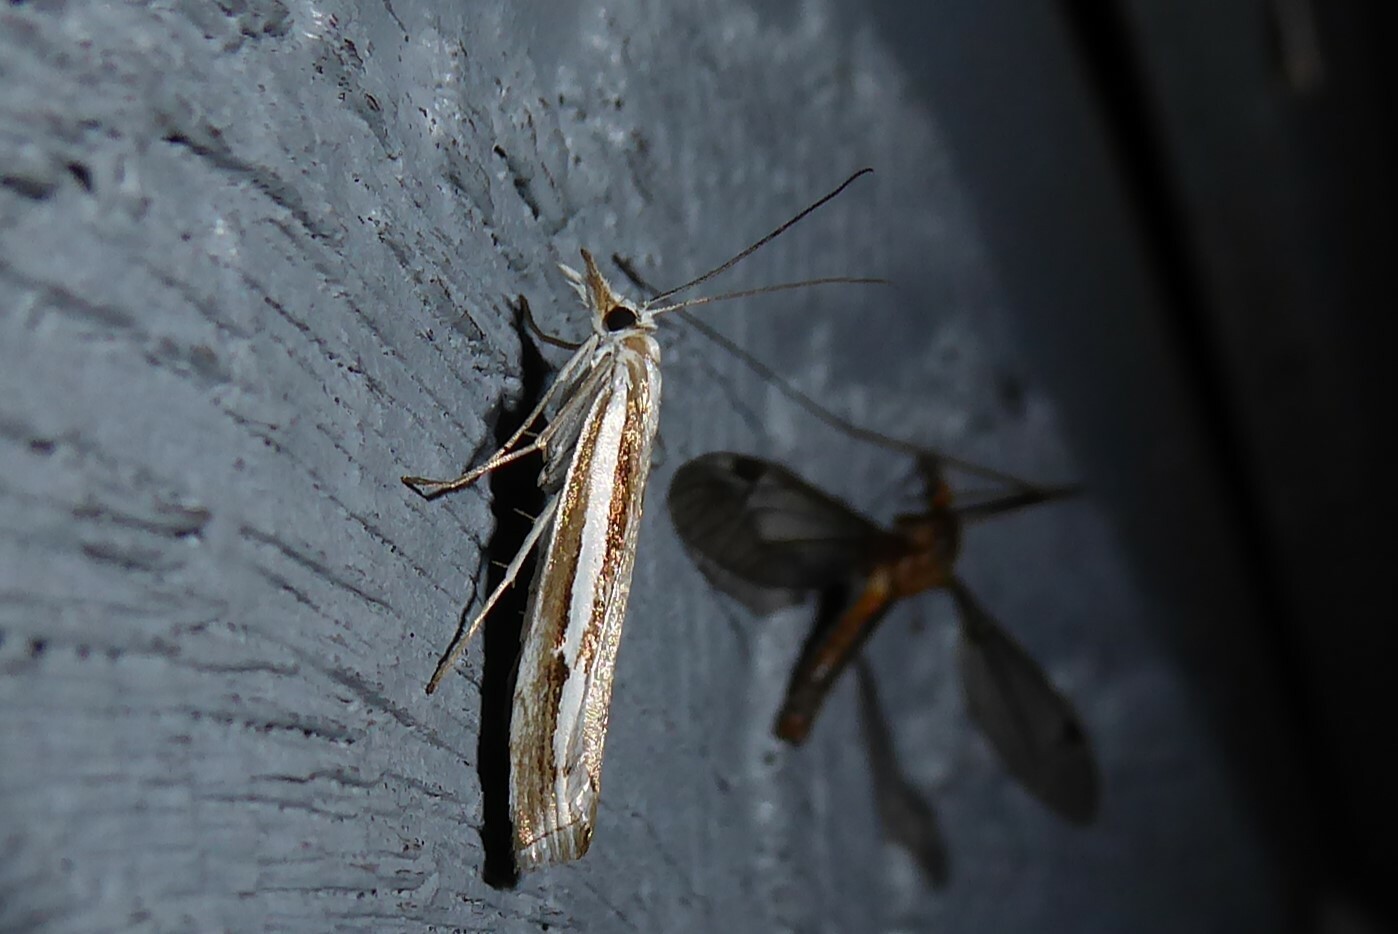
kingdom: Animalia
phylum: Arthropoda
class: Insecta
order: Lepidoptera
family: Crambidae
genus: Orocrambus
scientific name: Orocrambus vittellus
